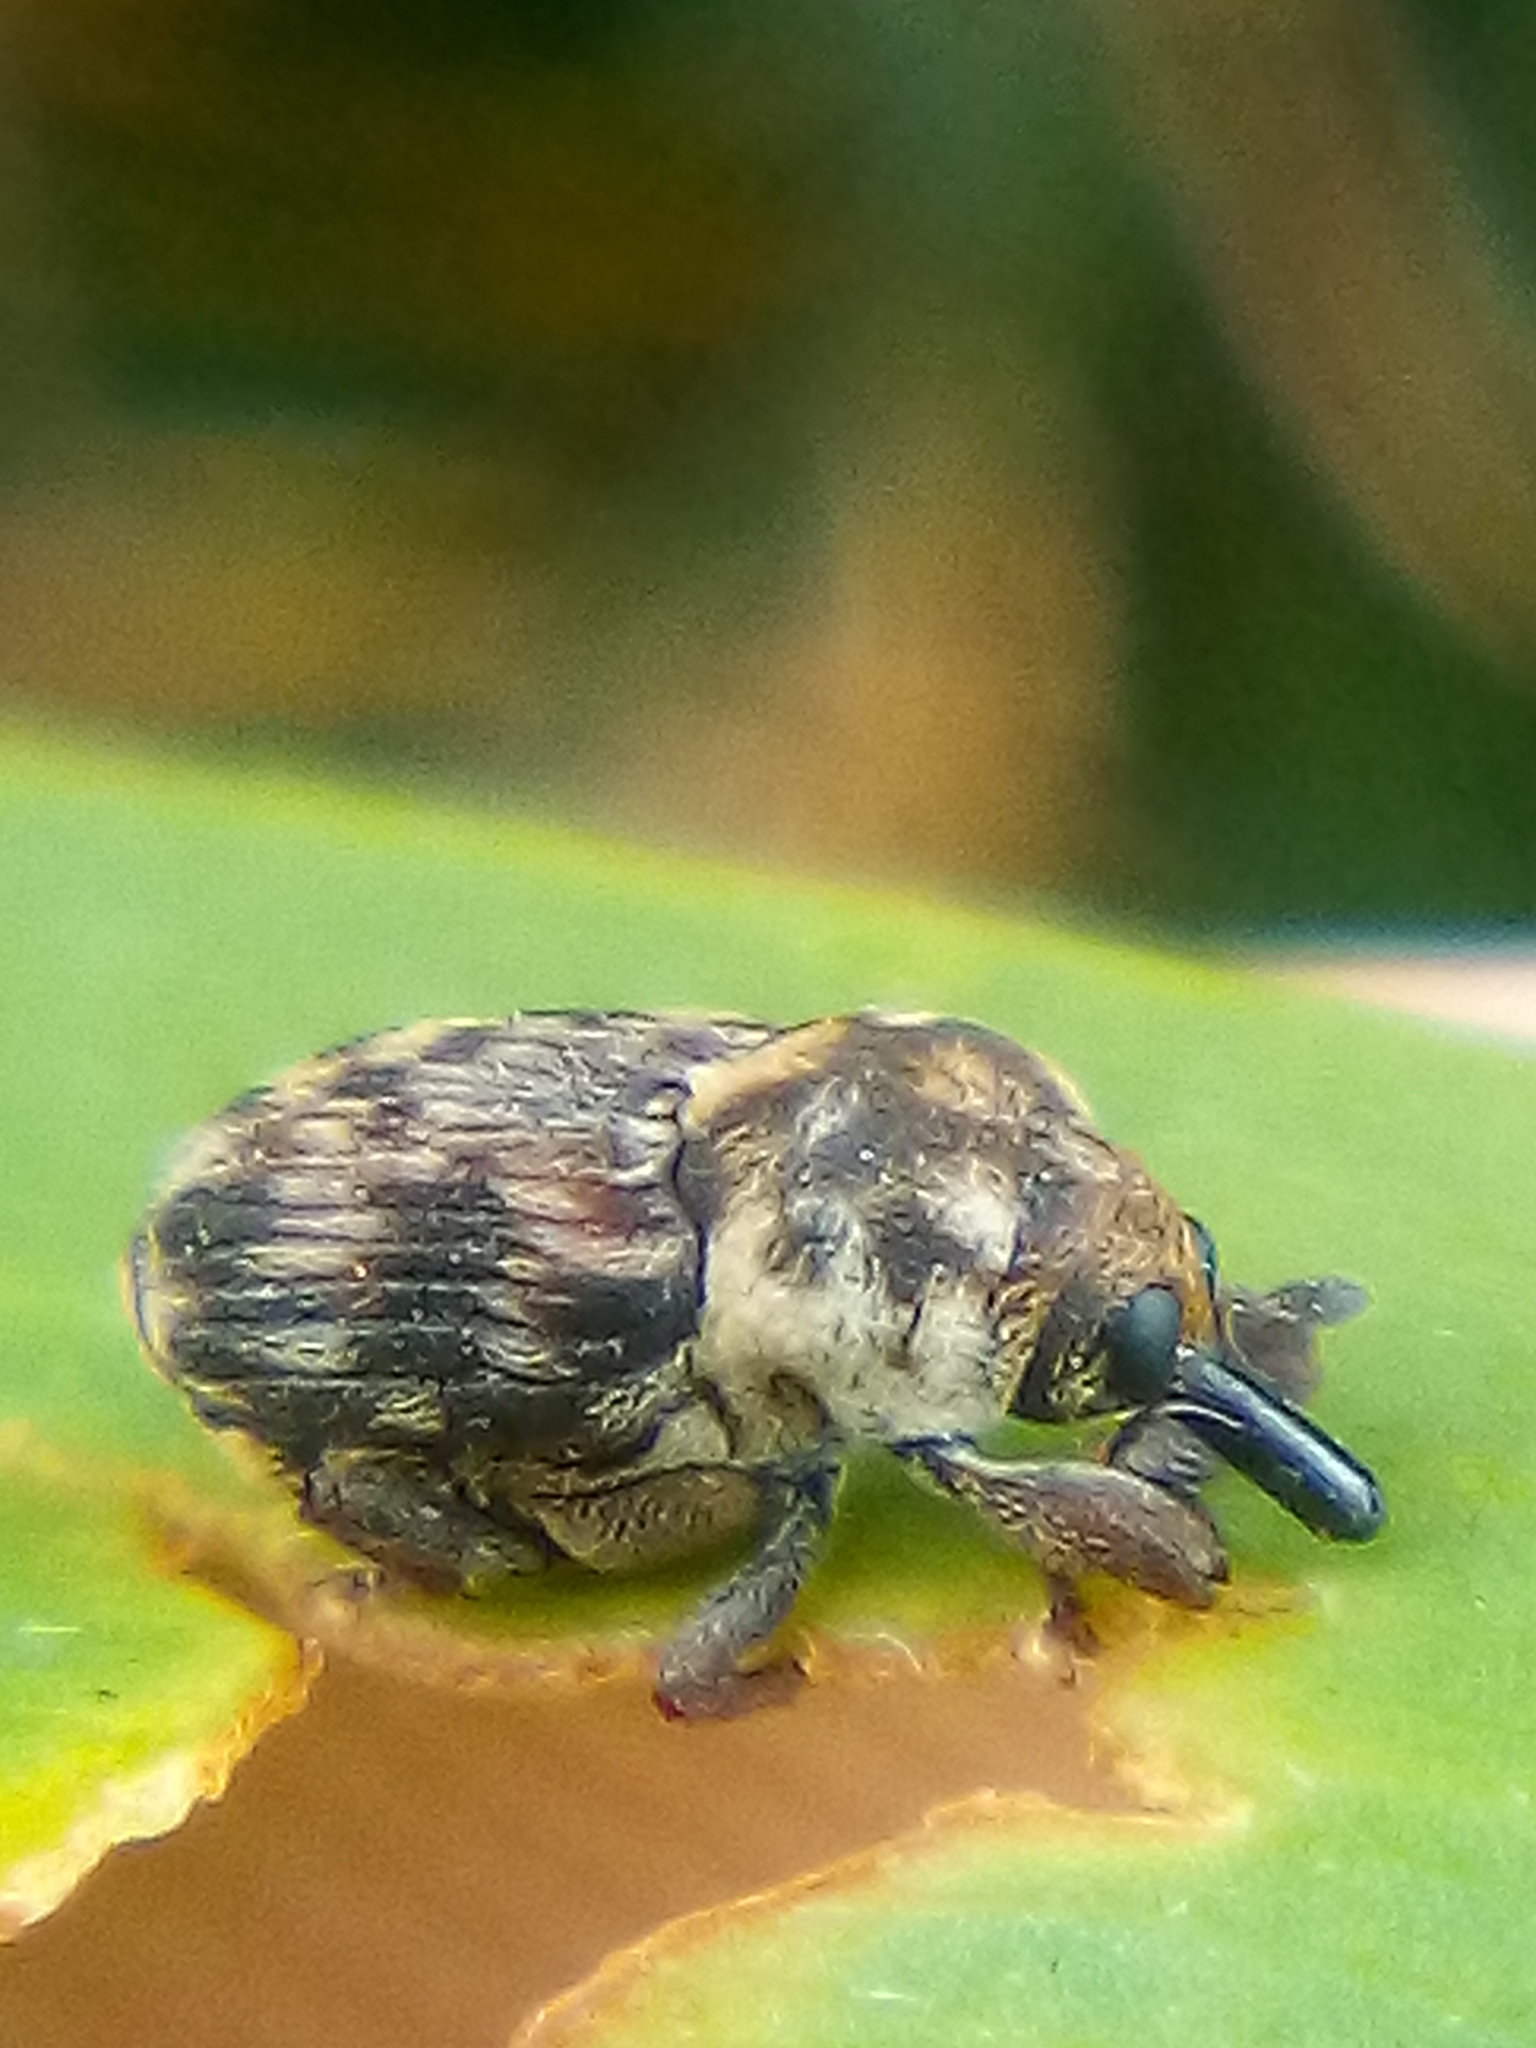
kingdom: Animalia
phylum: Arthropoda
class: Insecta
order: Coleoptera
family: Curculionidae
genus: Neolaemosaccus
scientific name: Neolaemosaccus narinus
